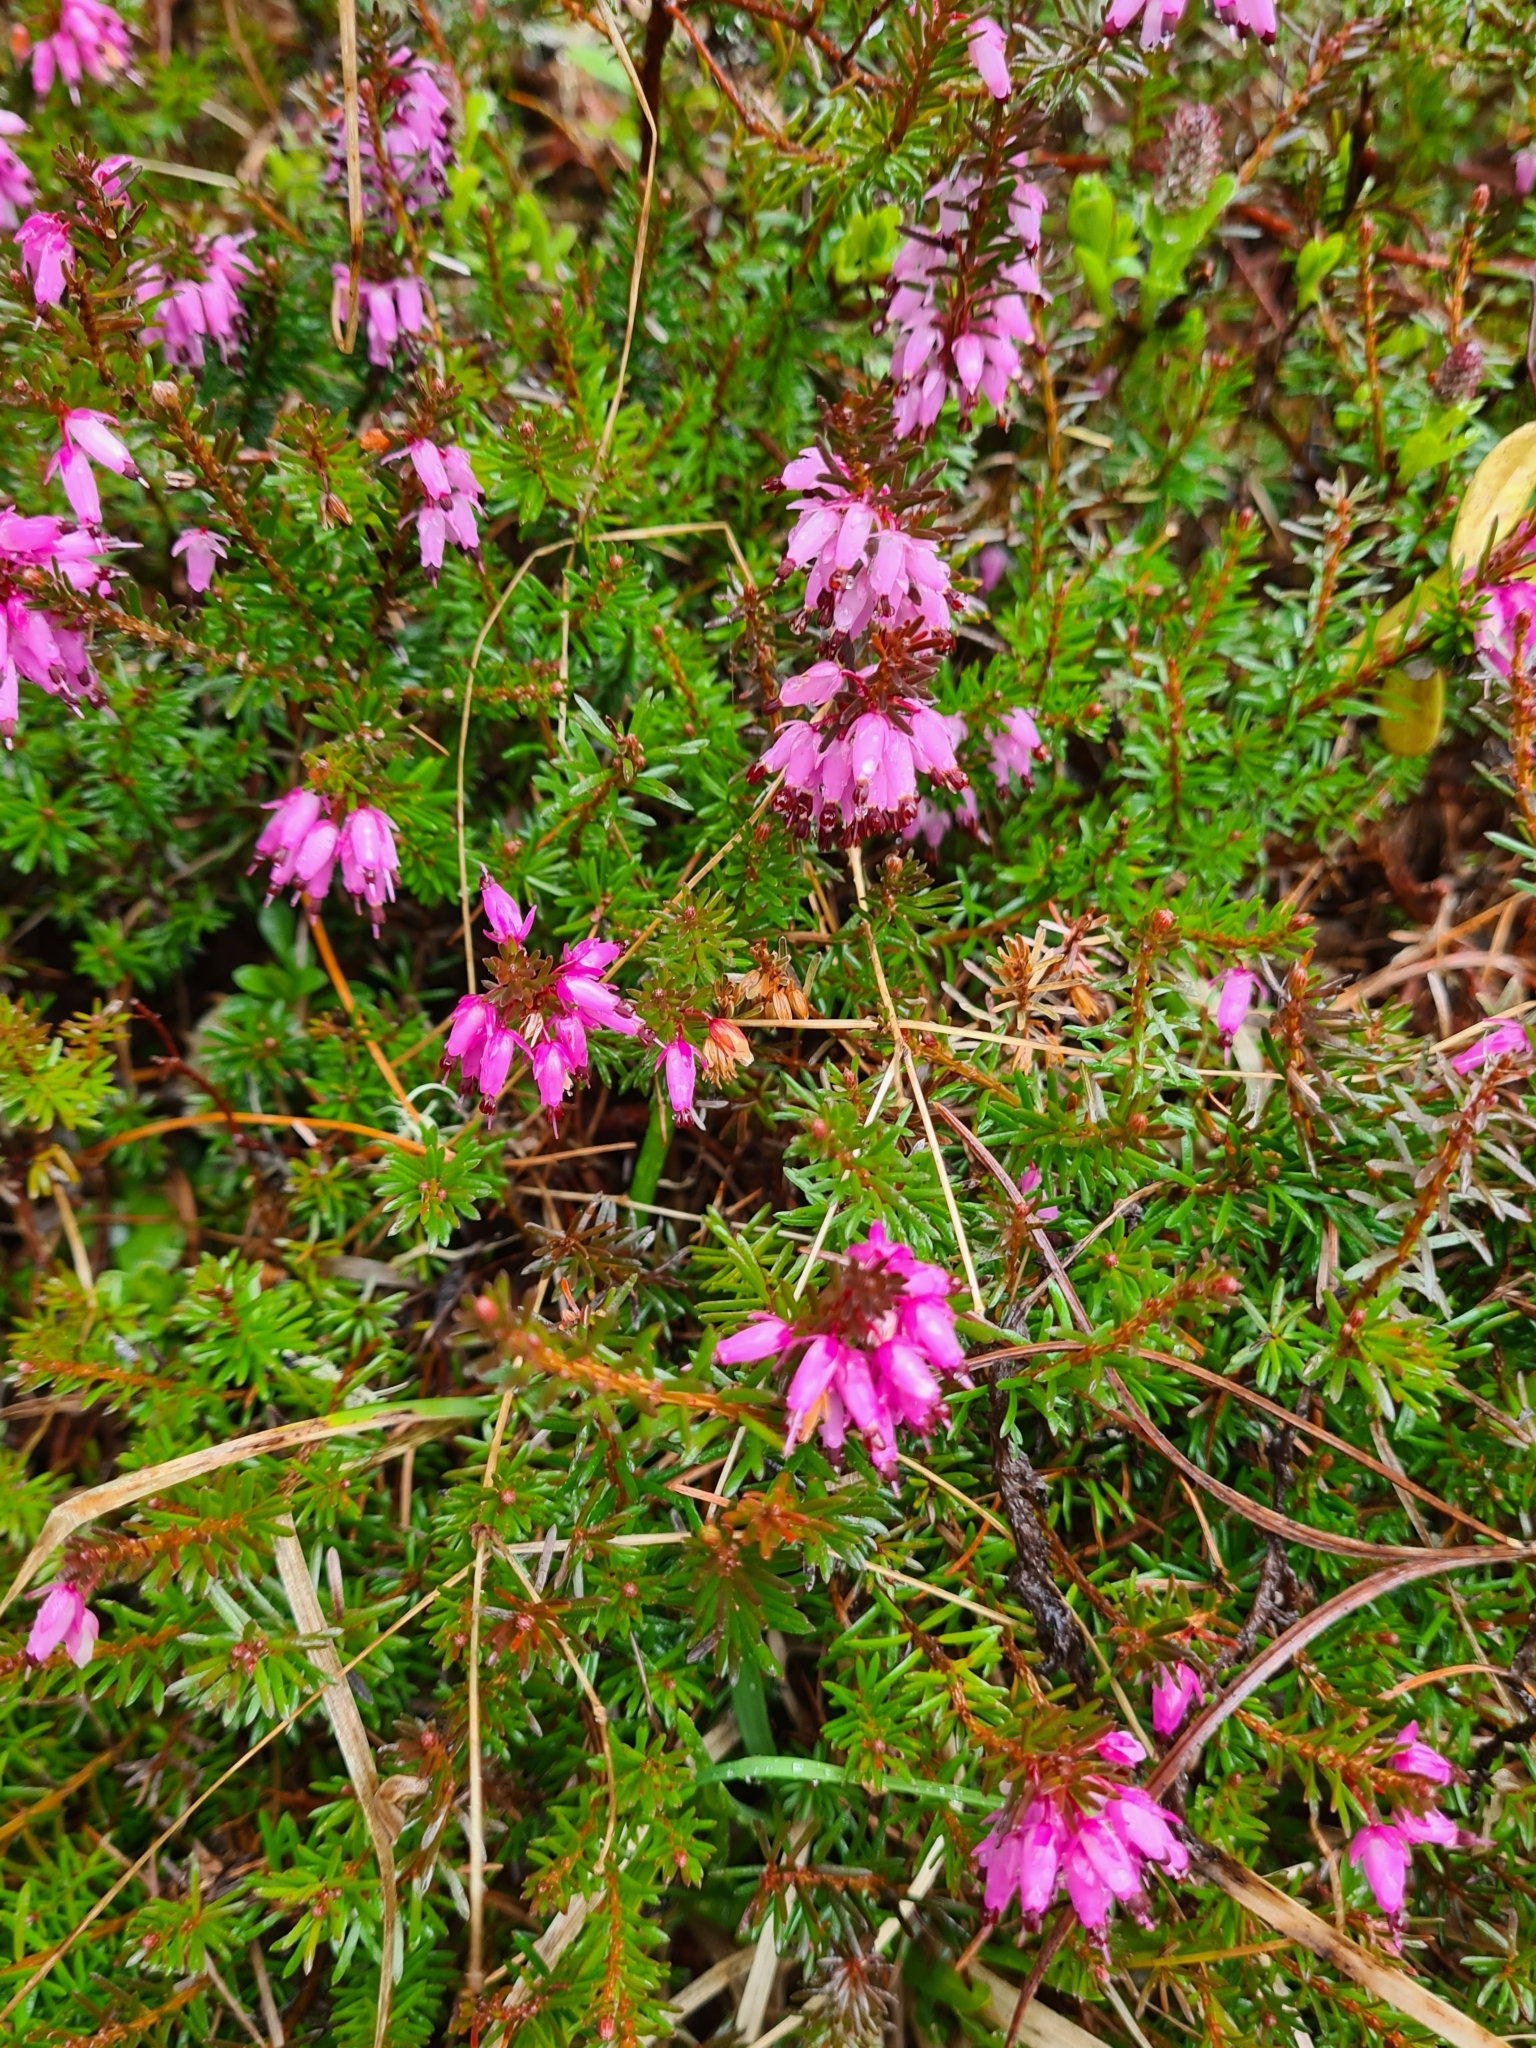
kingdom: Plantae
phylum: Tracheophyta
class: Magnoliopsida
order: Ericales
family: Ericaceae
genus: Erica
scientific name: Erica carnea
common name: Winter heath
